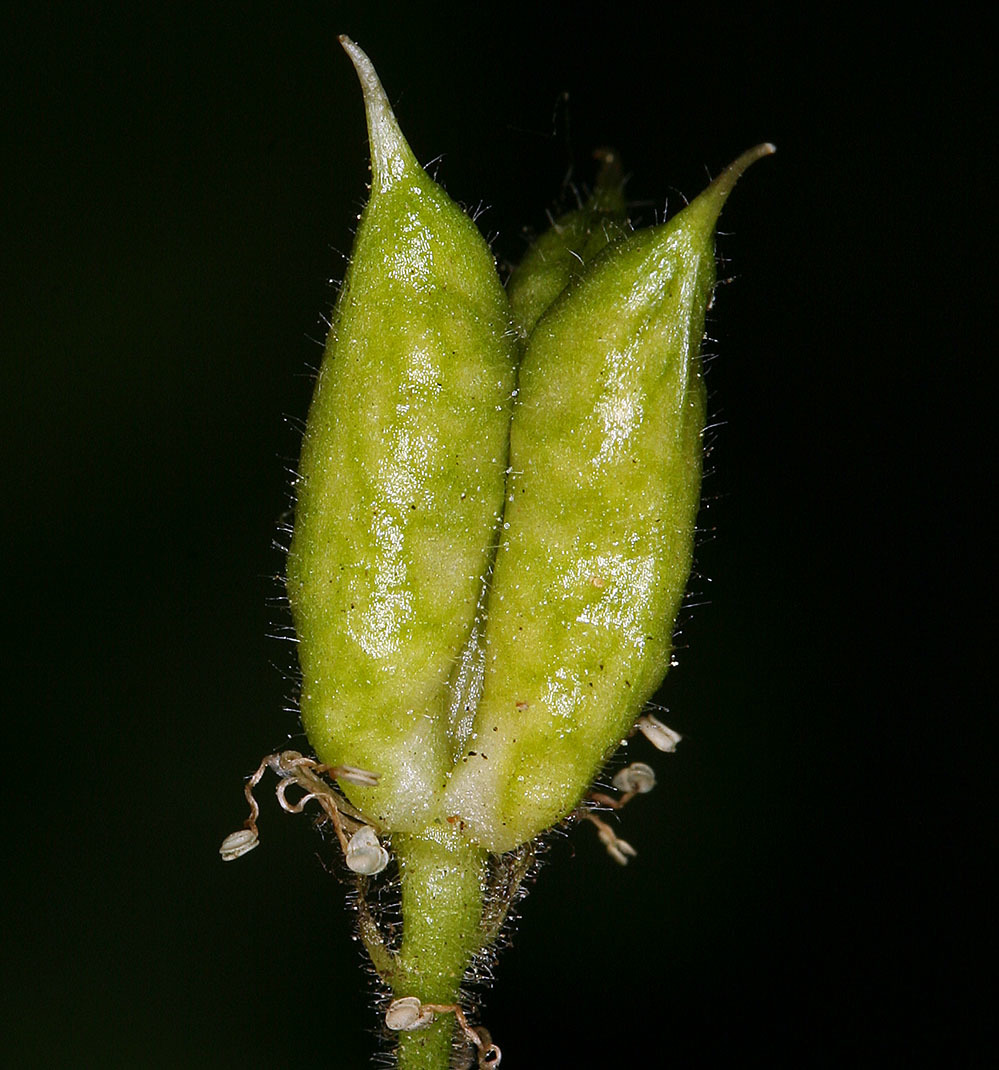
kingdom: Plantae
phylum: Tracheophyta
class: Magnoliopsida
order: Ranunculales
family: Ranunculaceae
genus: Aconitum
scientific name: Aconitum columbianum
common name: Columbia aconite
